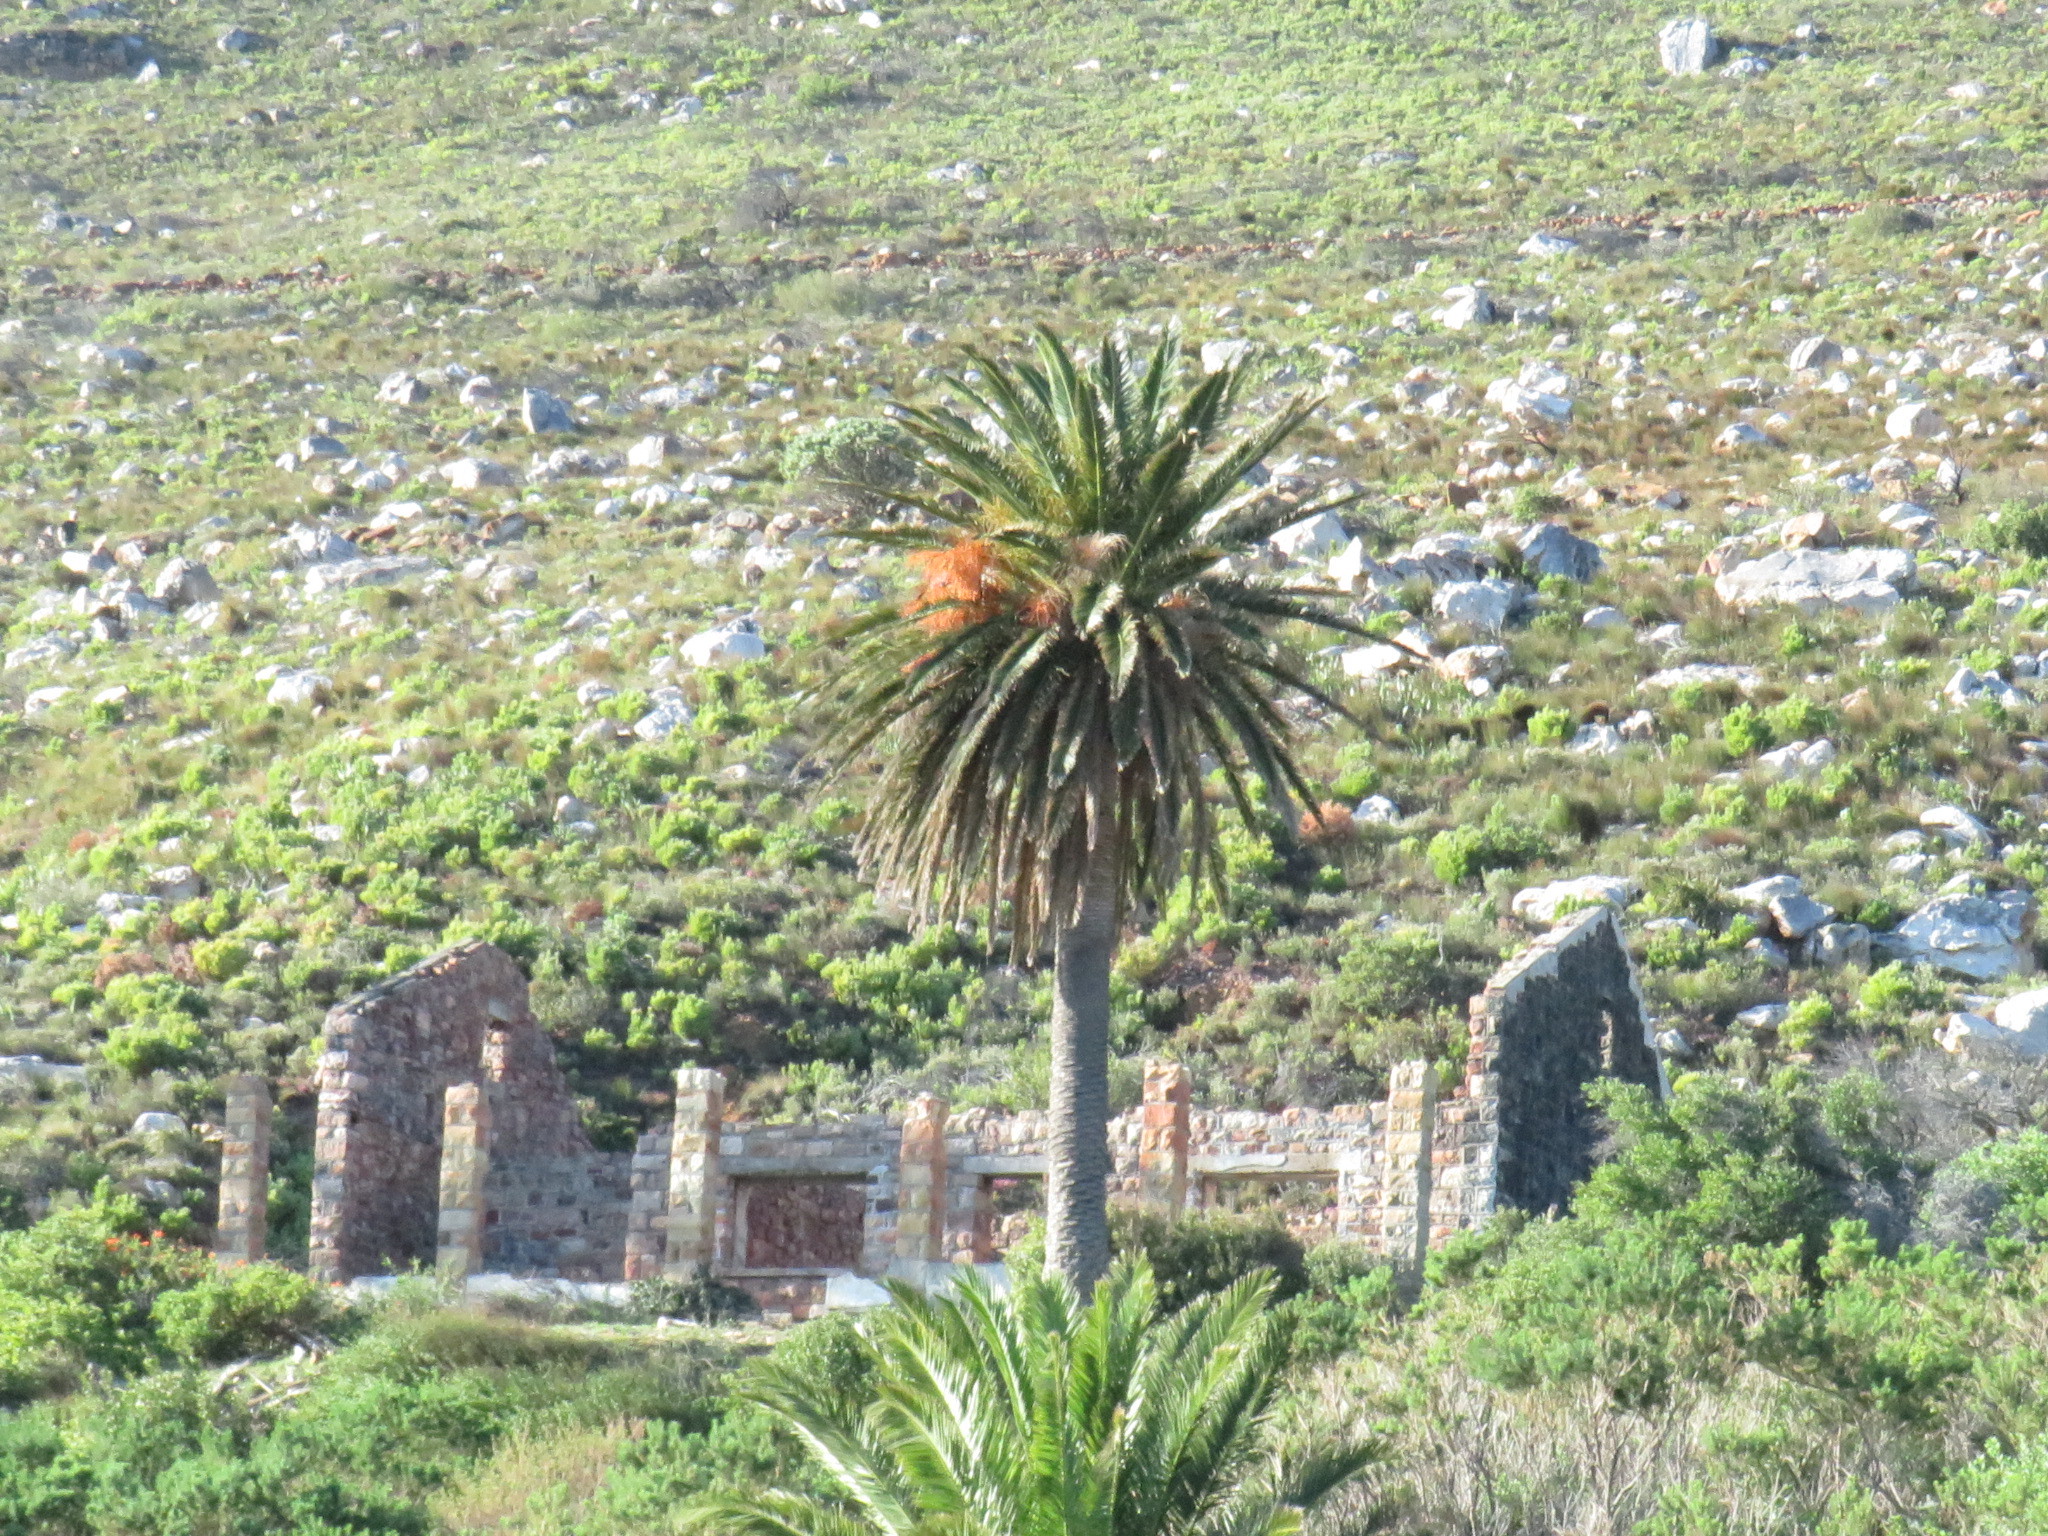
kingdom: Plantae
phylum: Tracheophyta
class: Liliopsida
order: Arecales
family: Arecaceae
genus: Phoenix
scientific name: Phoenix canariensis
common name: Canary island date palm
